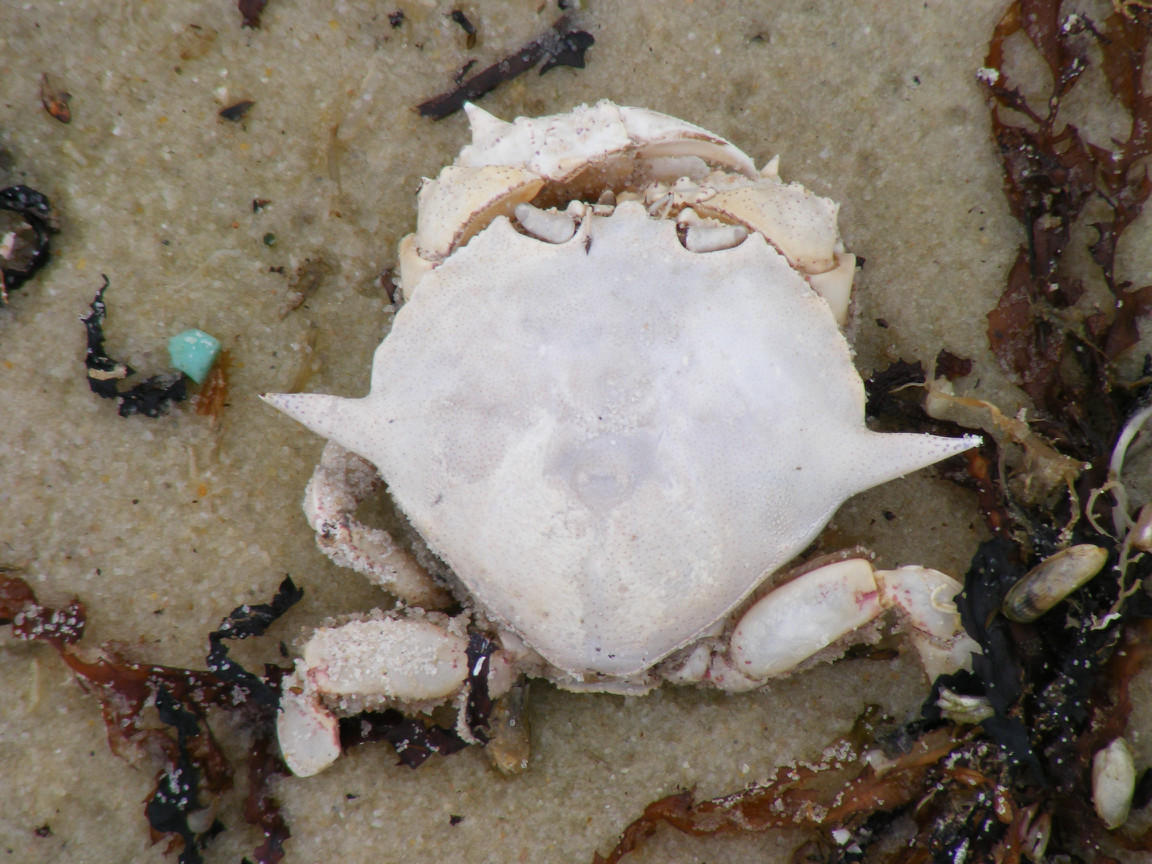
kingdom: Animalia
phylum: Arthropoda
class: Malacostraca
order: Decapoda
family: Matutidae
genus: Ashtoret
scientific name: Ashtoret lunaris
